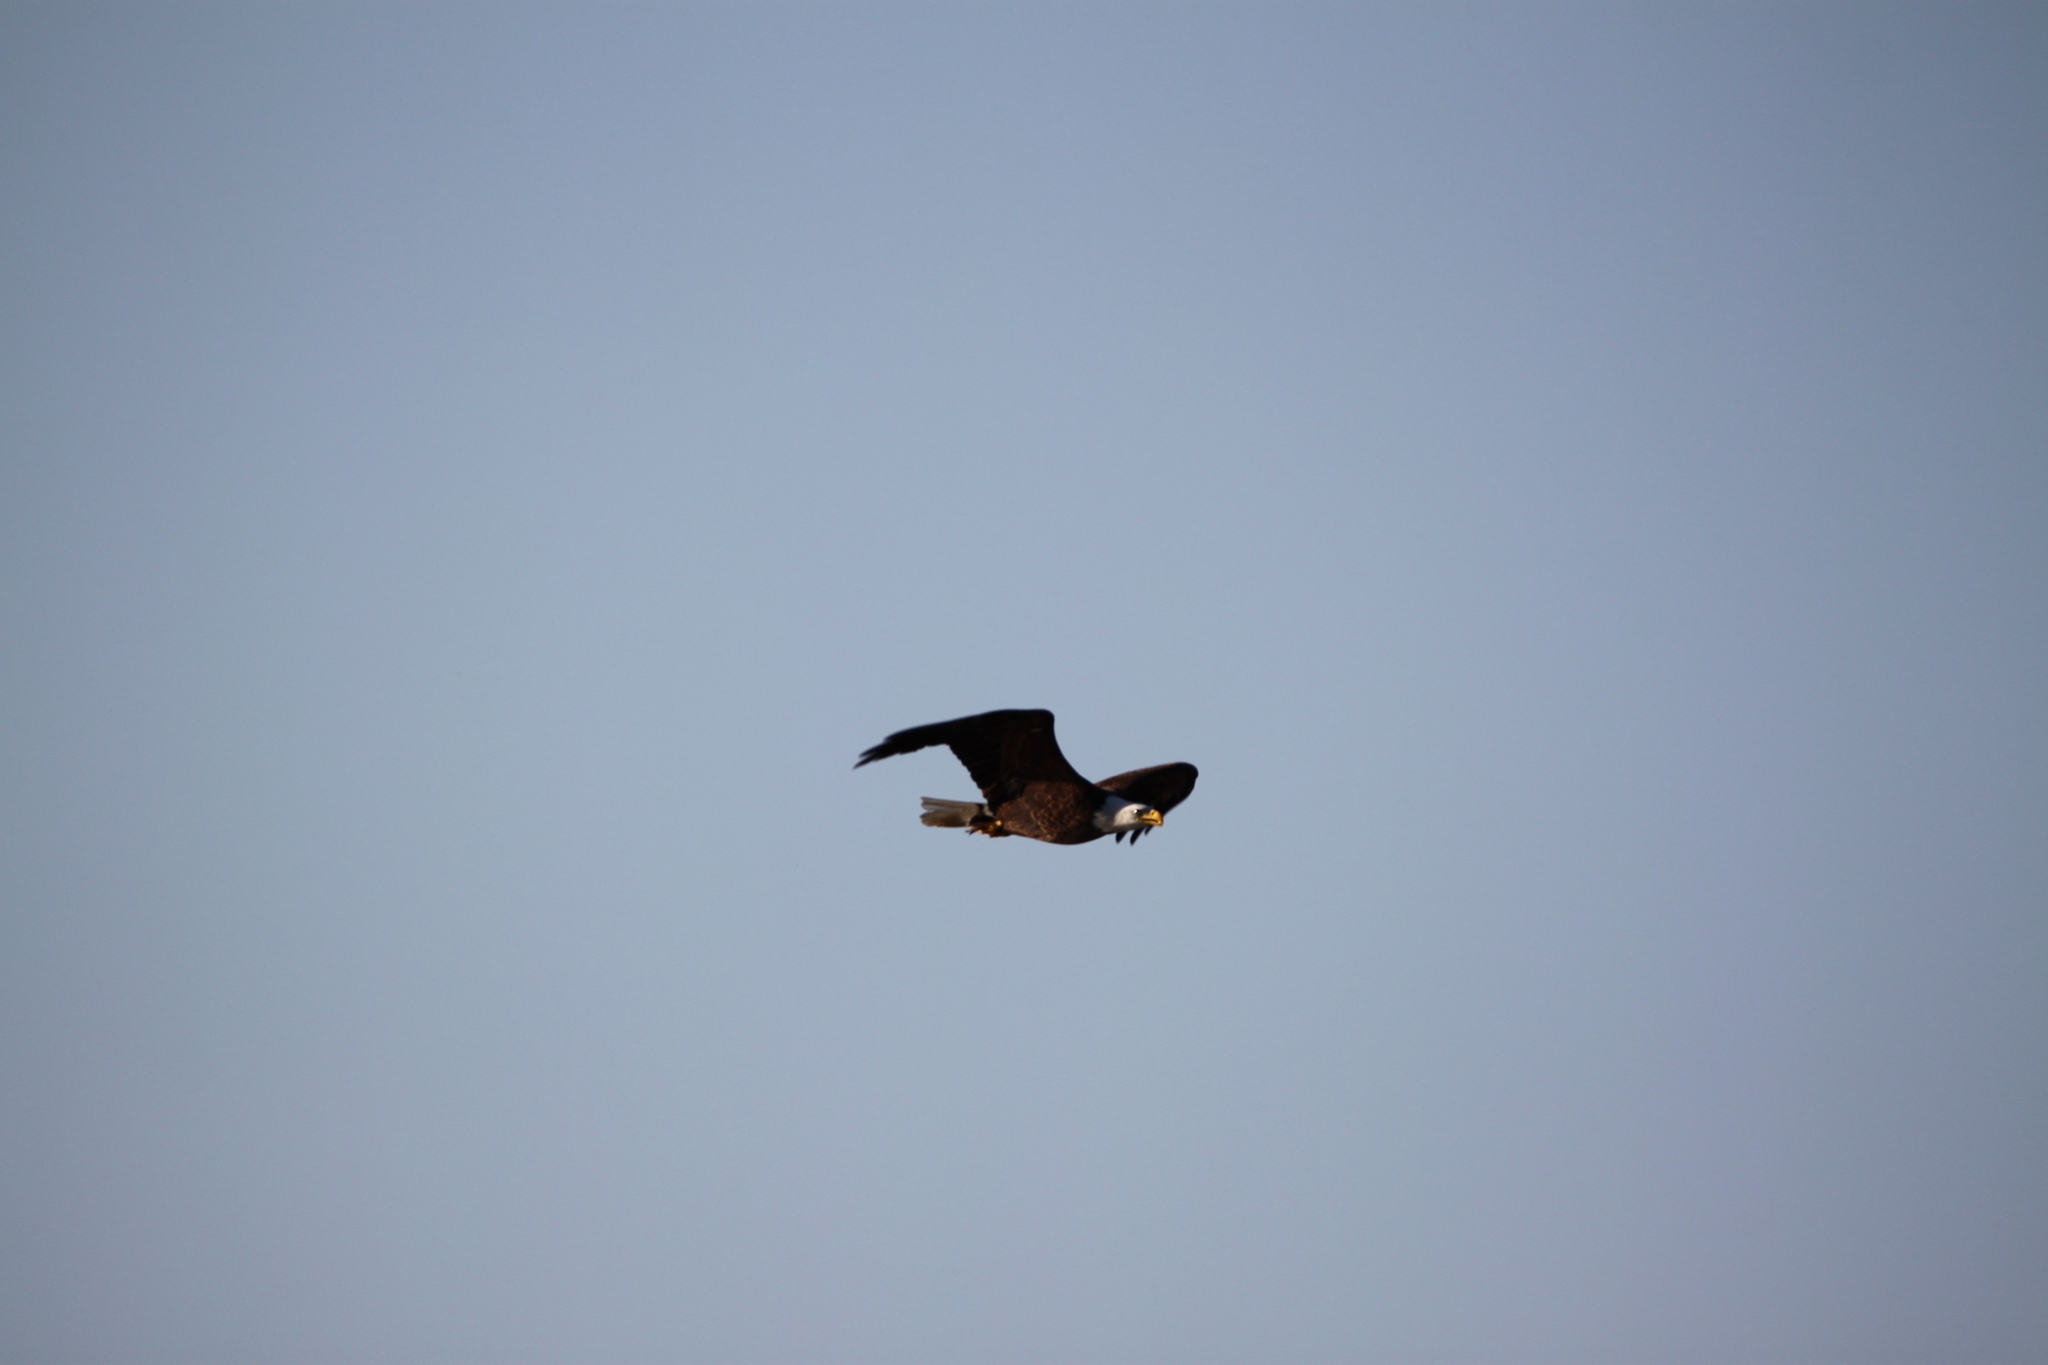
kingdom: Animalia
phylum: Chordata
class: Aves
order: Accipitriformes
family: Accipitridae
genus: Haliaeetus
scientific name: Haliaeetus leucocephalus
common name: Bald eagle
